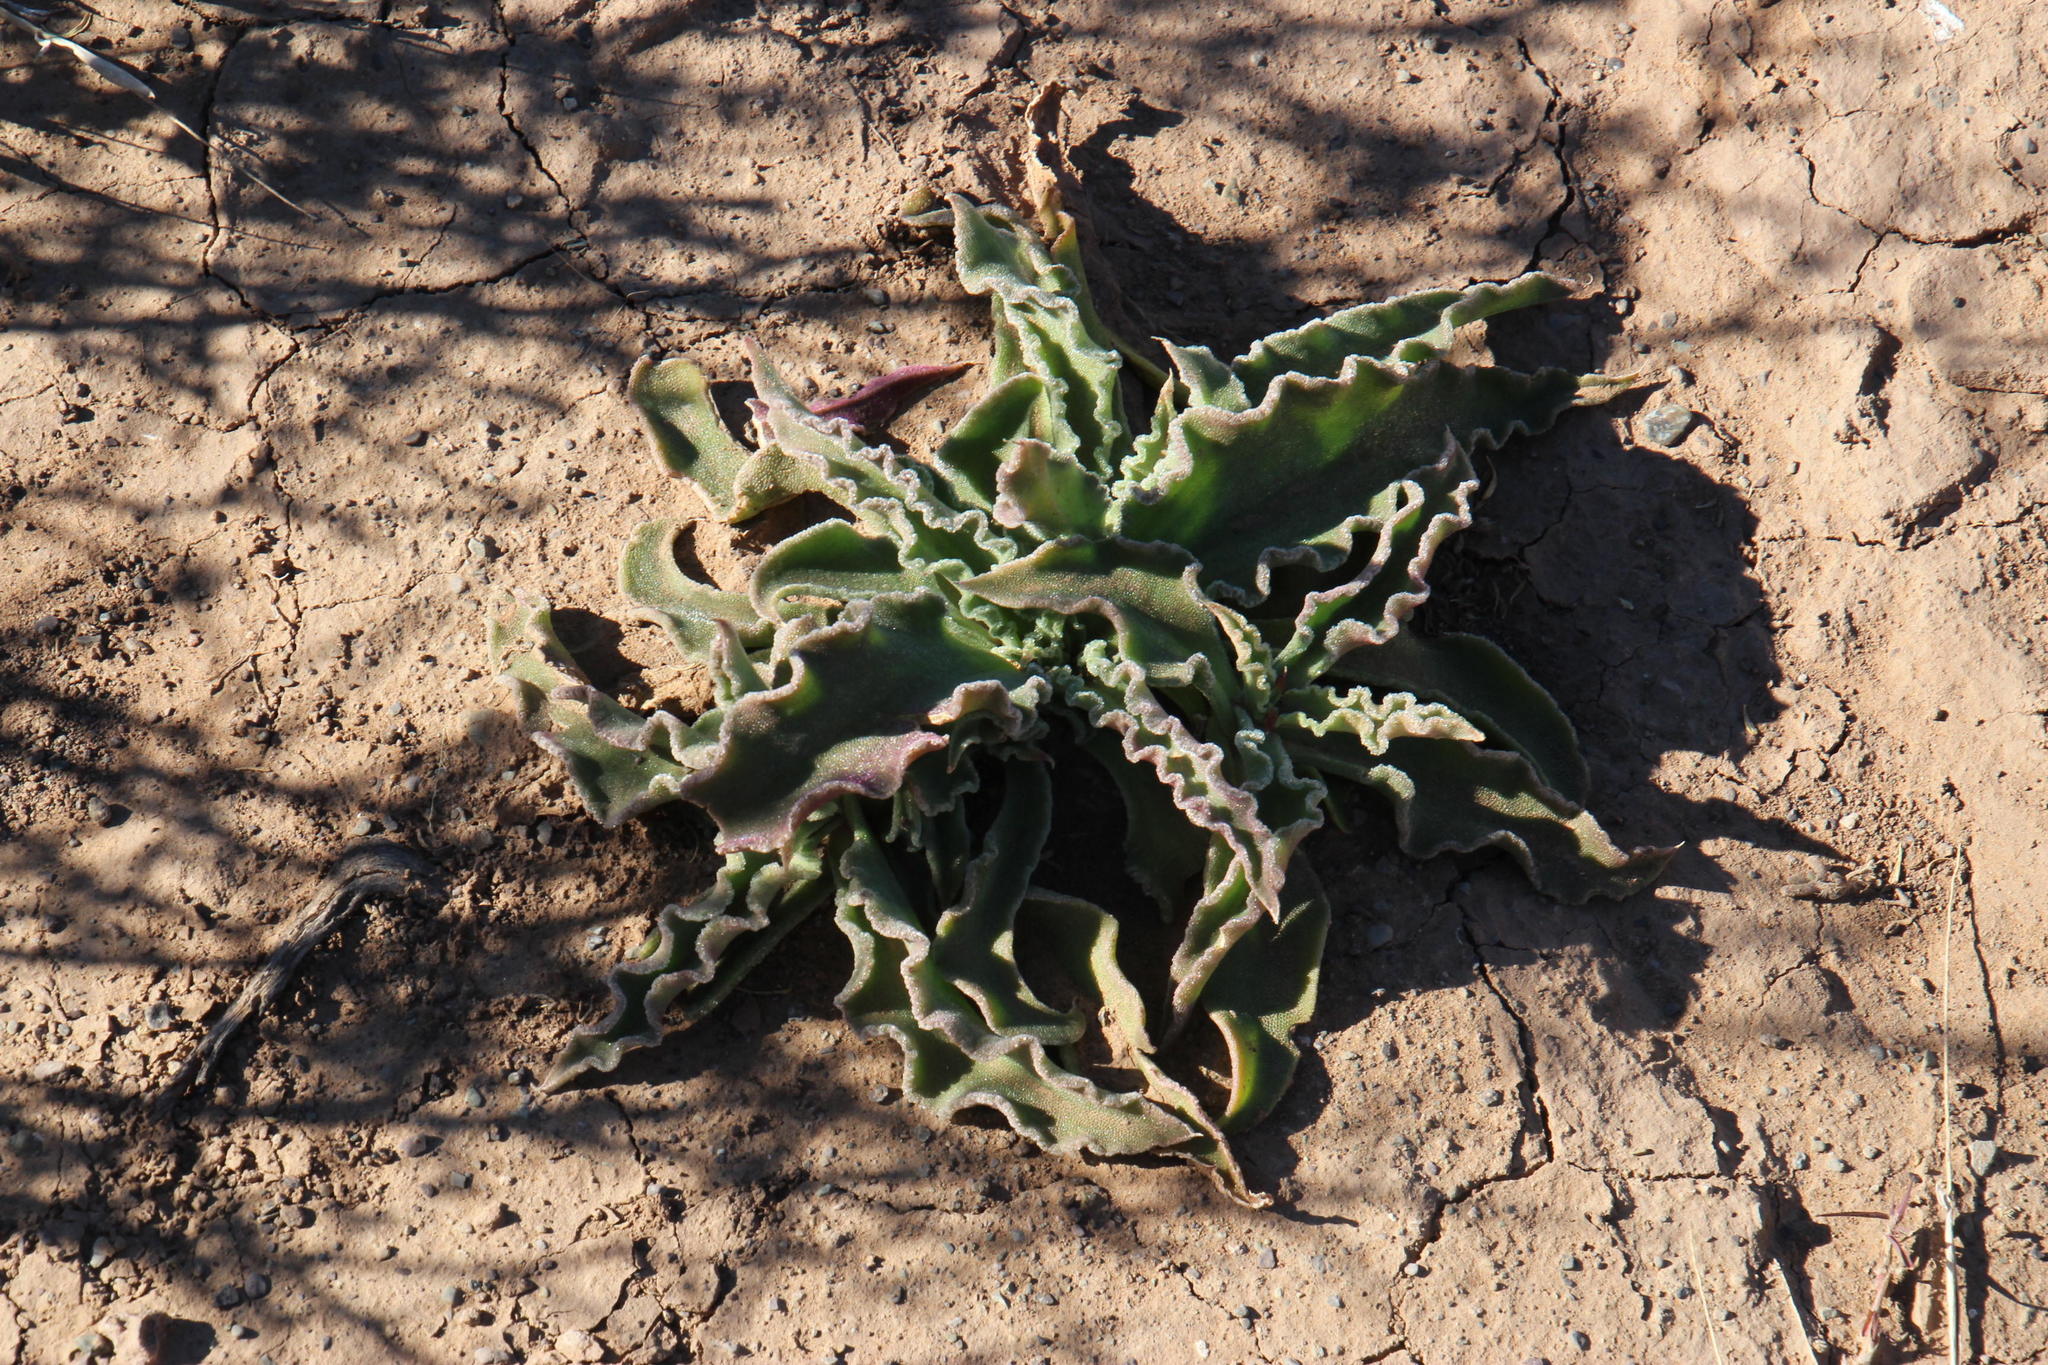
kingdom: Plantae
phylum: Tracheophyta
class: Magnoliopsida
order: Caryophyllales
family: Aizoaceae
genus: Mesembryanthemum
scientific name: Mesembryanthemum guerichianum
